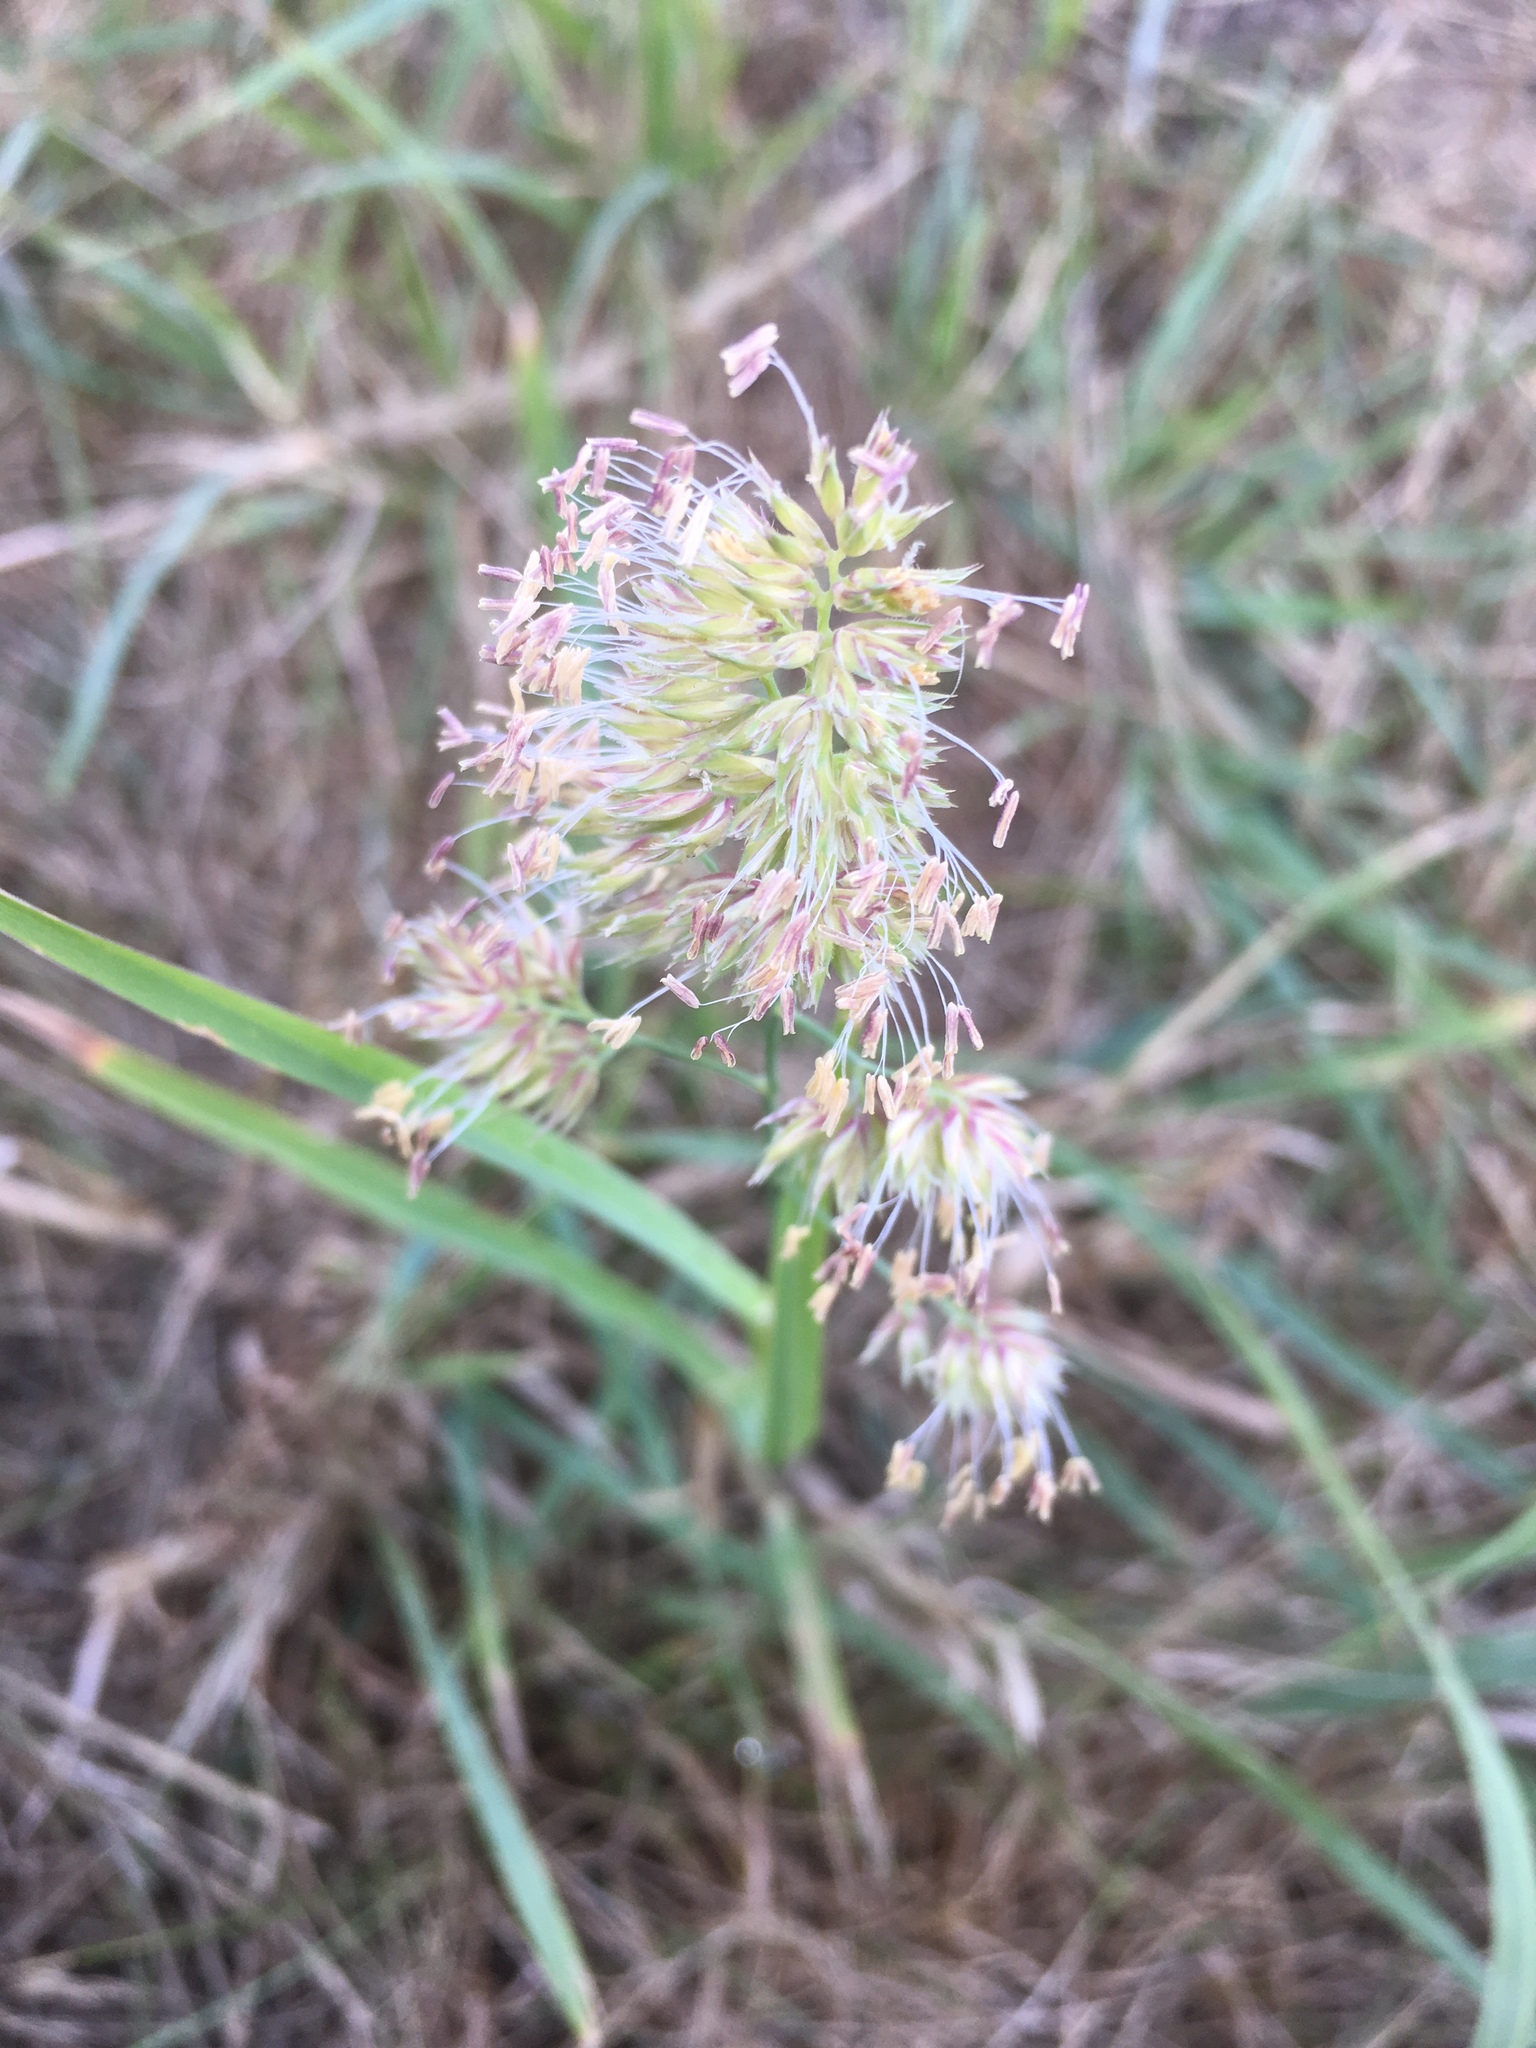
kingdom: Plantae
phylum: Tracheophyta
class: Liliopsida
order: Poales
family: Poaceae
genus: Dactylis
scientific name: Dactylis glomerata
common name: Orchardgrass
